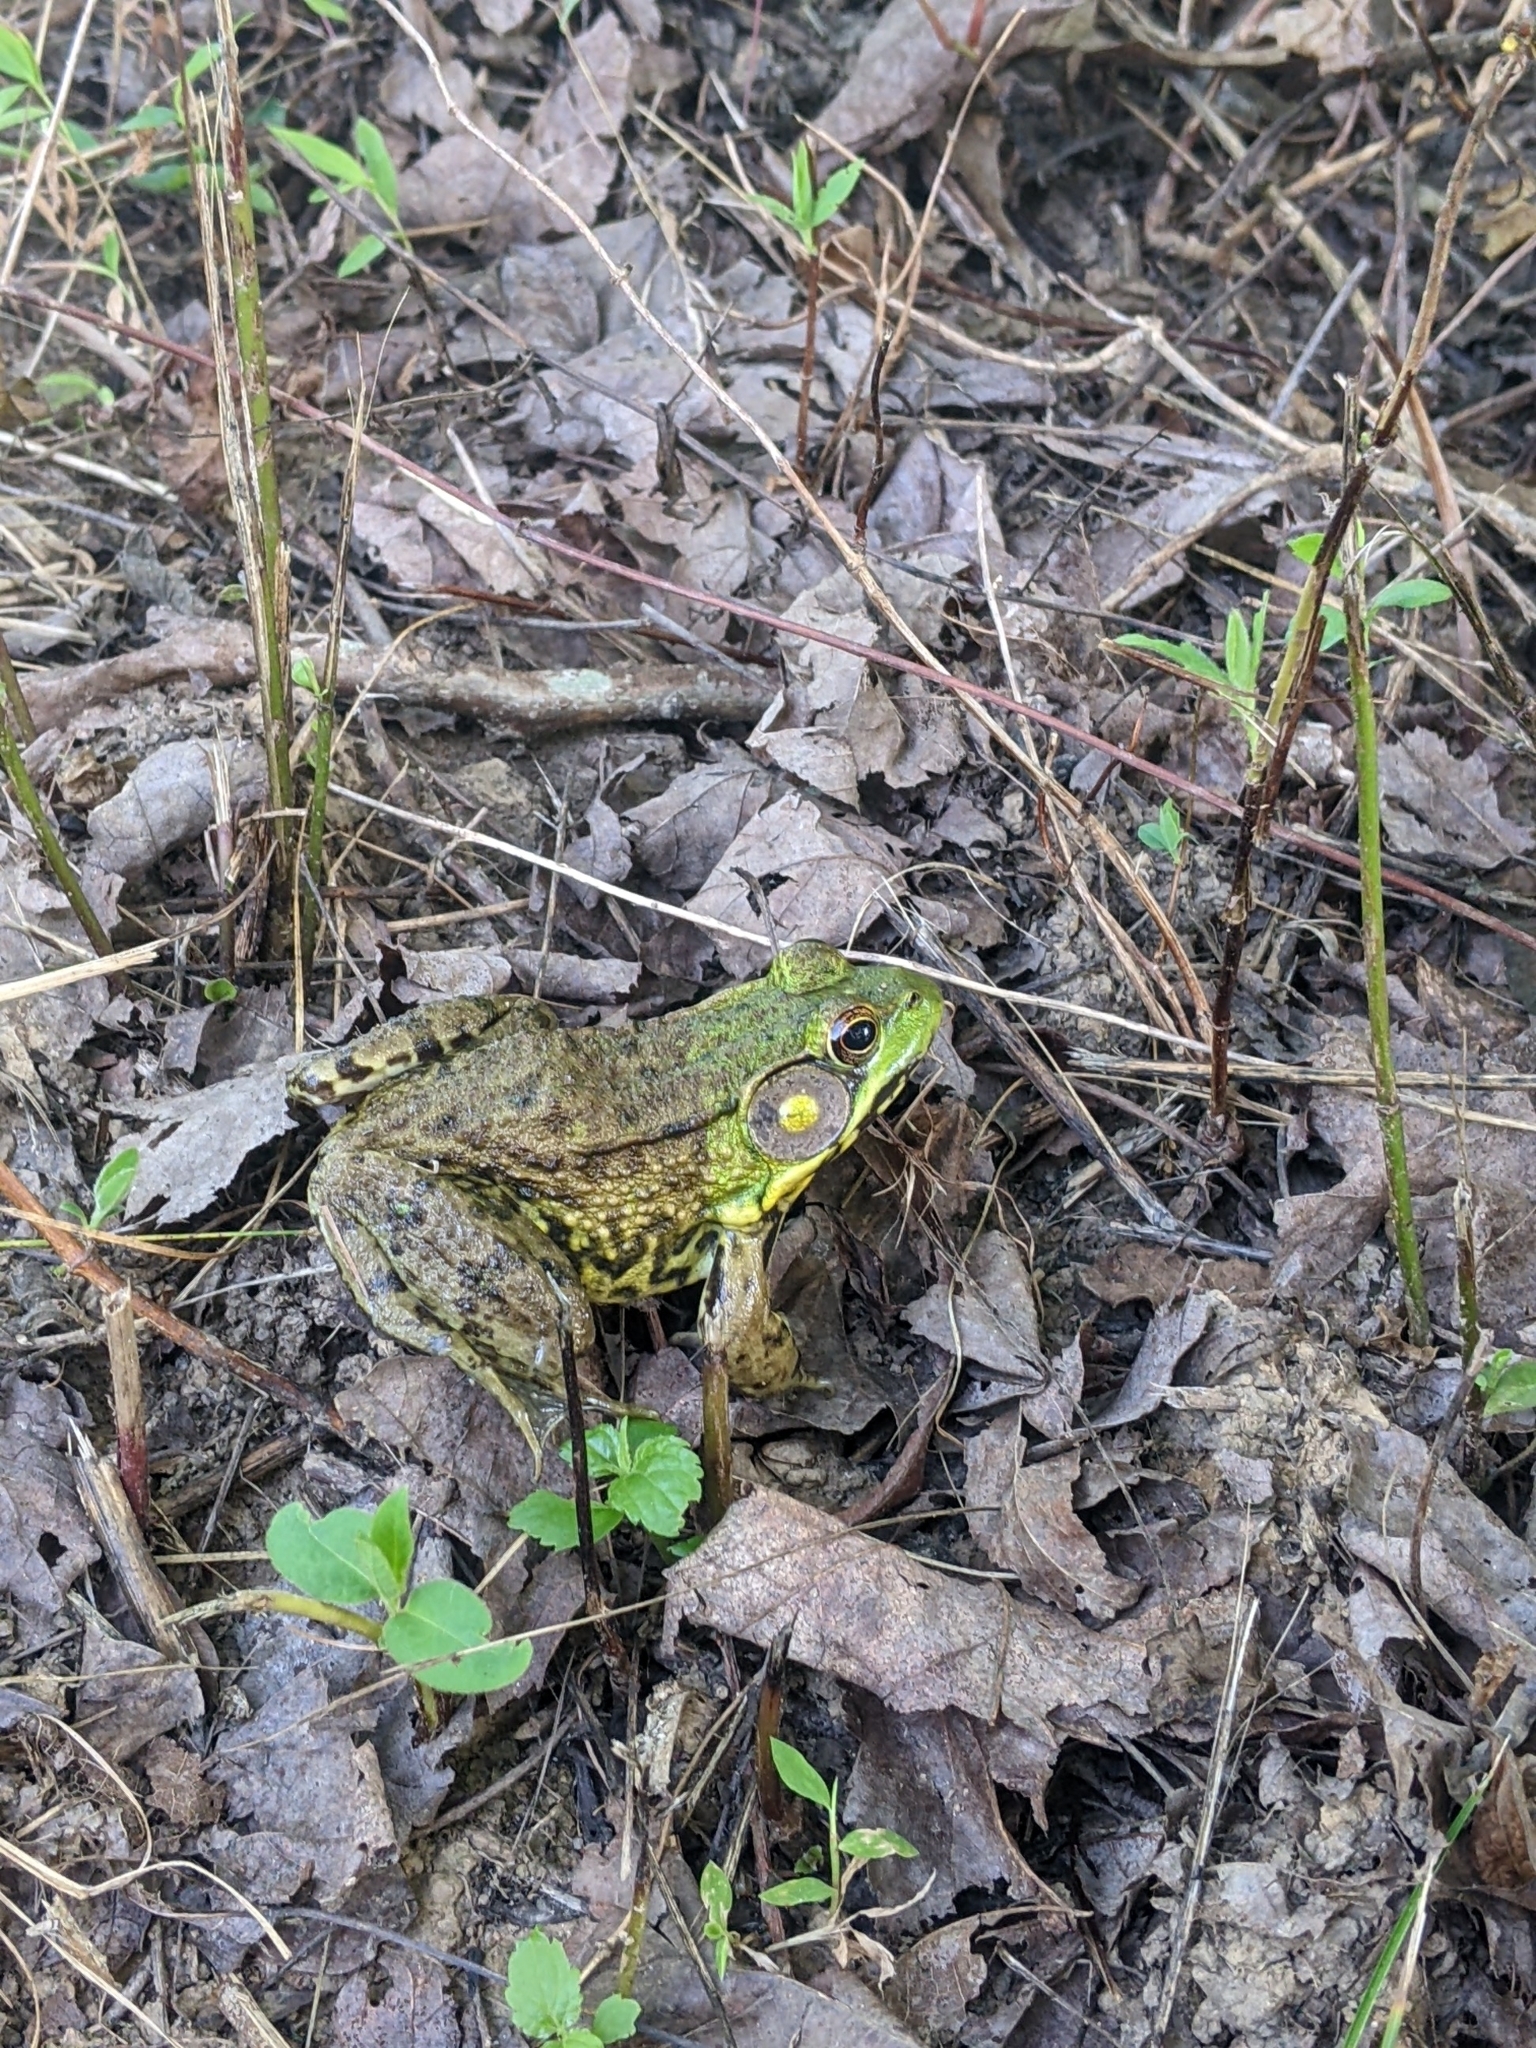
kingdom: Animalia
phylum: Chordata
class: Amphibia
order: Anura
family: Ranidae
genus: Lithobates
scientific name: Lithobates clamitans
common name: Green frog
